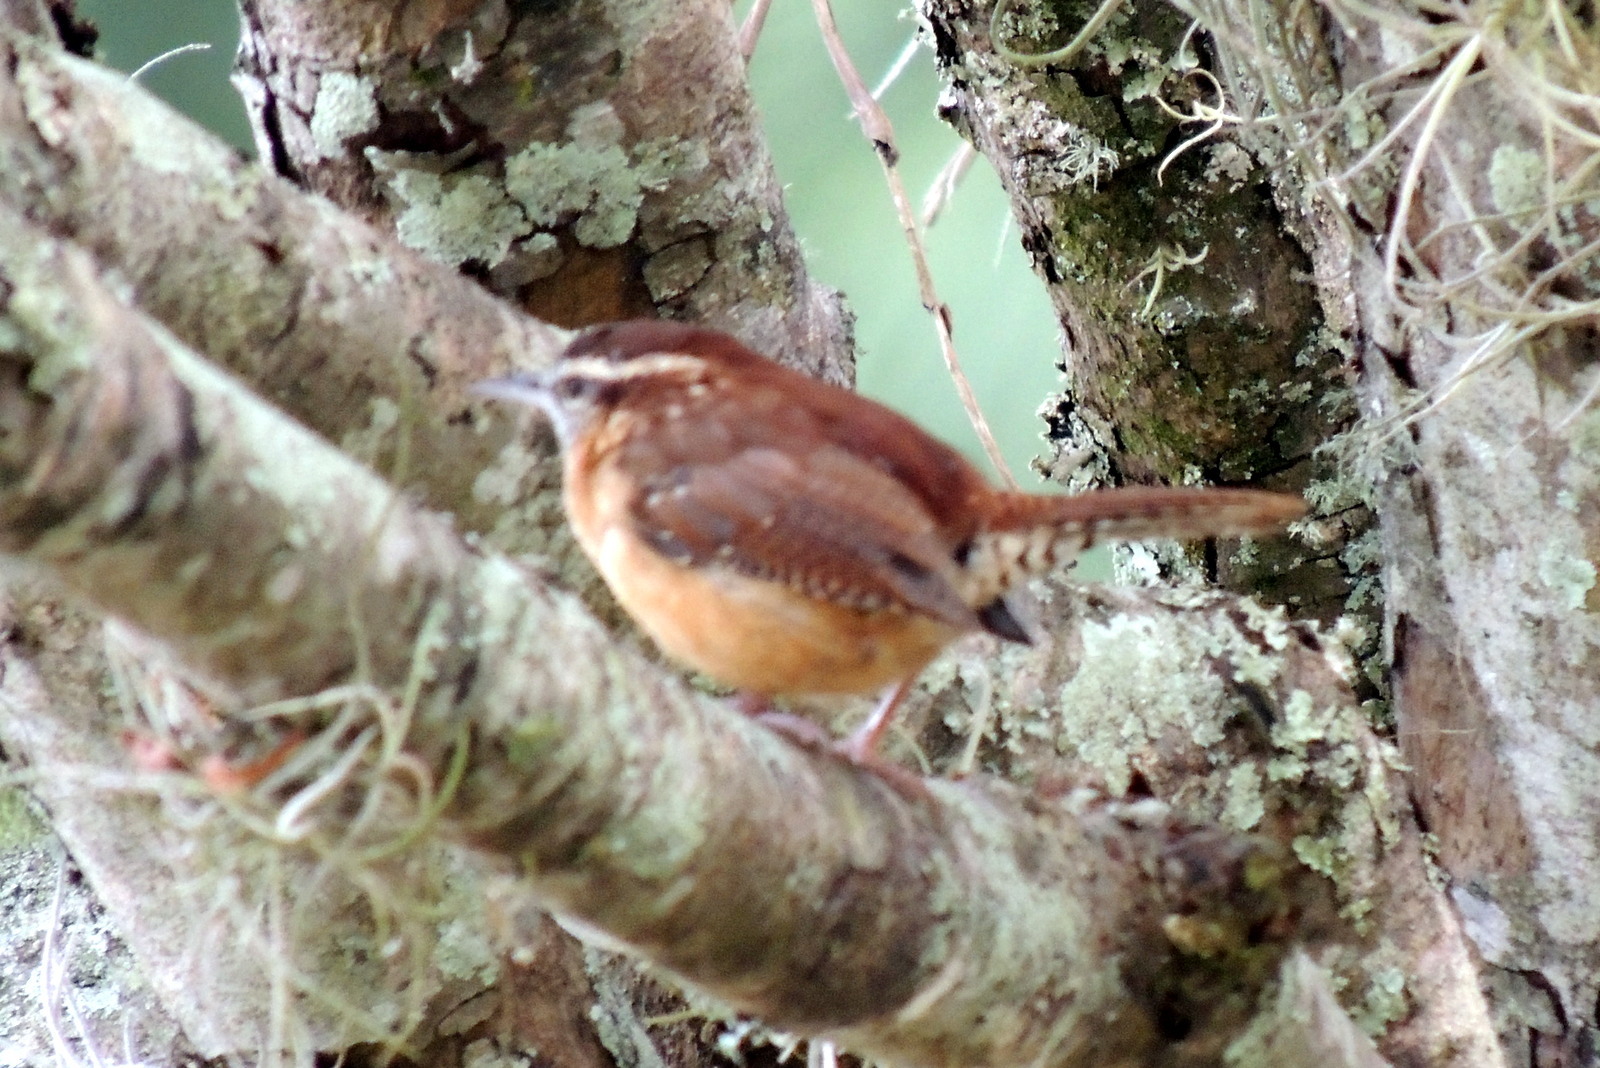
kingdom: Animalia
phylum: Chordata
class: Aves
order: Passeriformes
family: Troglodytidae
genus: Thryothorus
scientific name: Thryothorus ludovicianus
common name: Carolina wren
